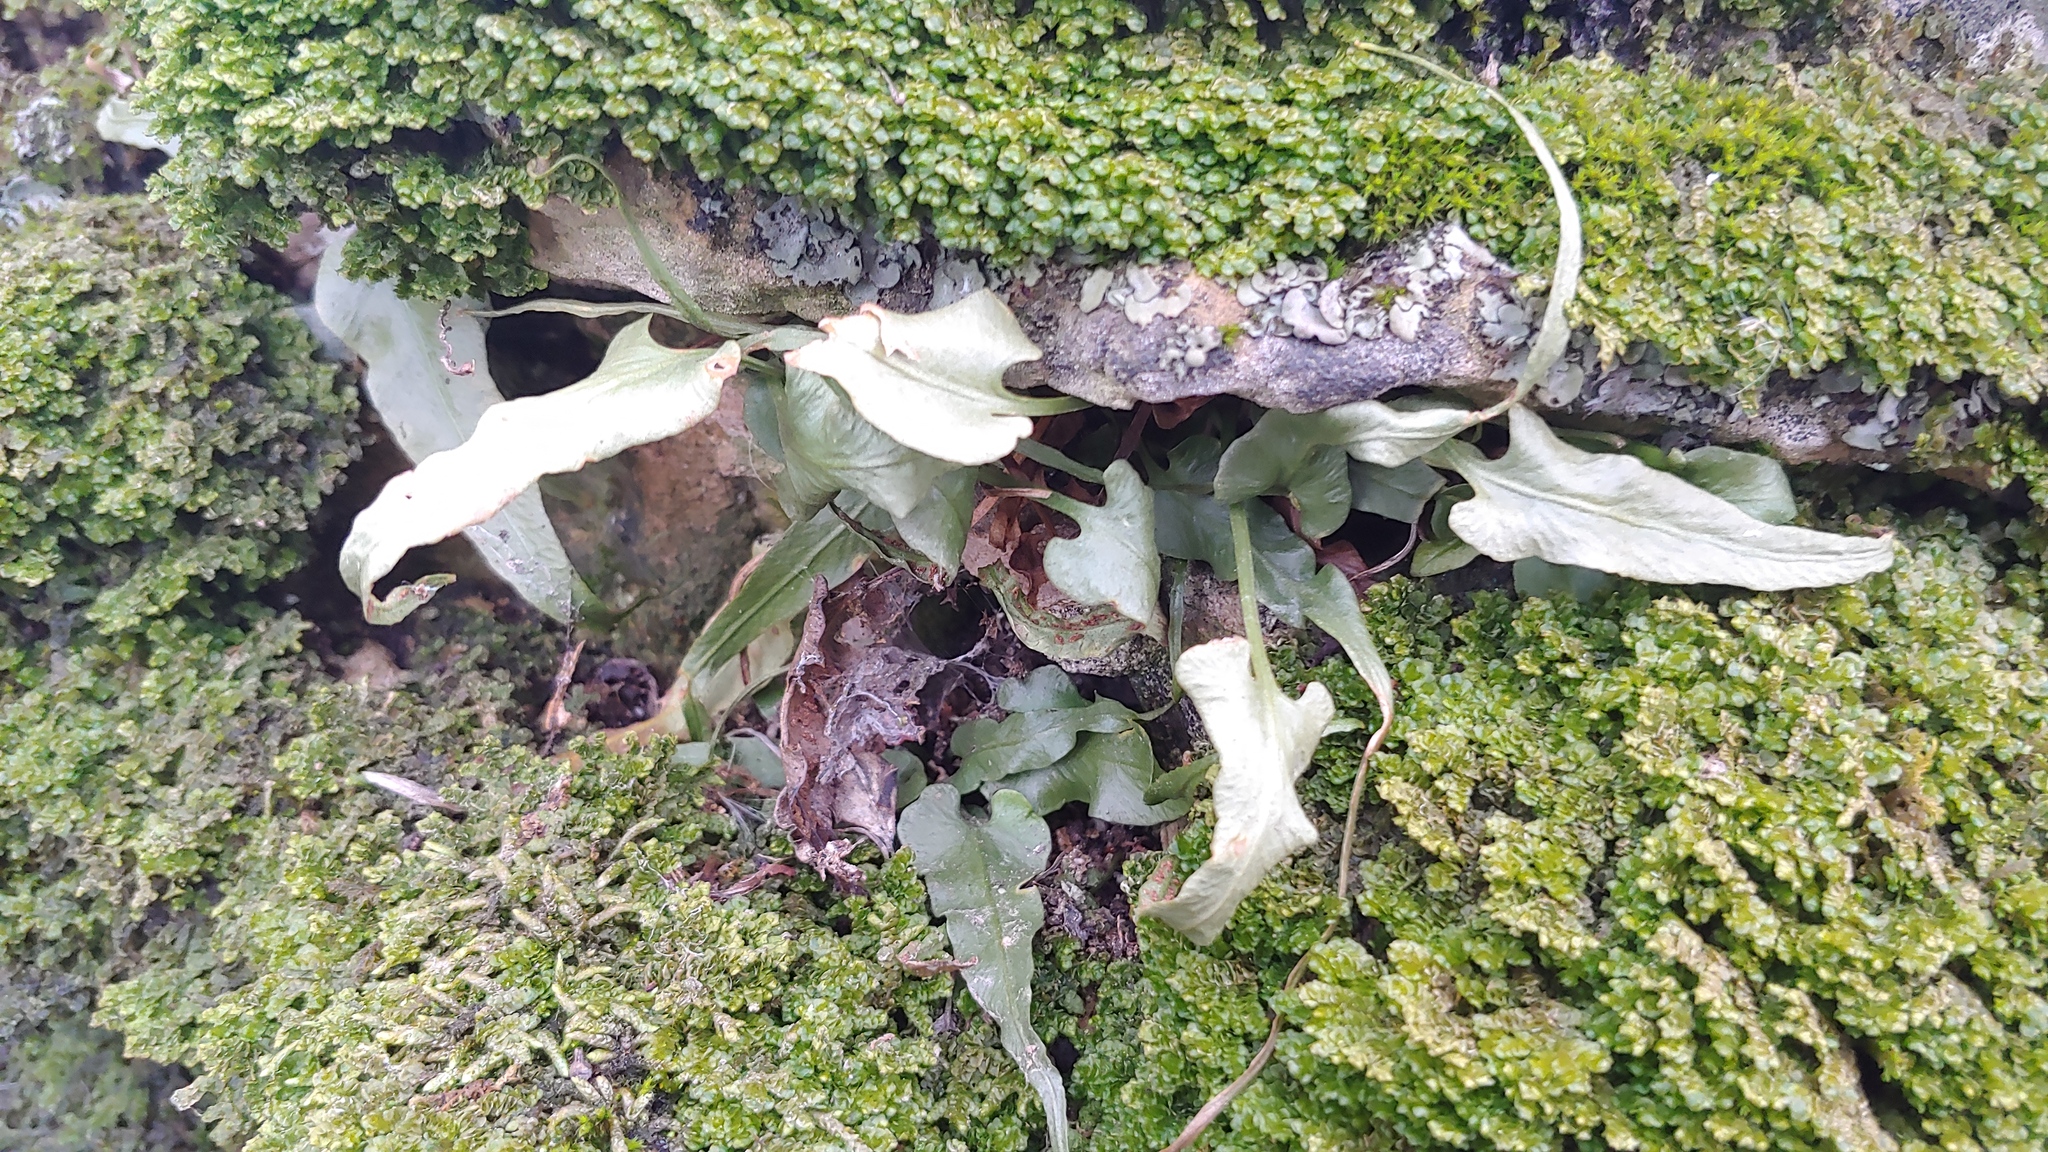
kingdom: Plantae
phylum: Tracheophyta
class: Polypodiopsida
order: Polypodiales
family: Aspleniaceae
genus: Asplenium
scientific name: Asplenium rhizophyllum
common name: Walking fern
